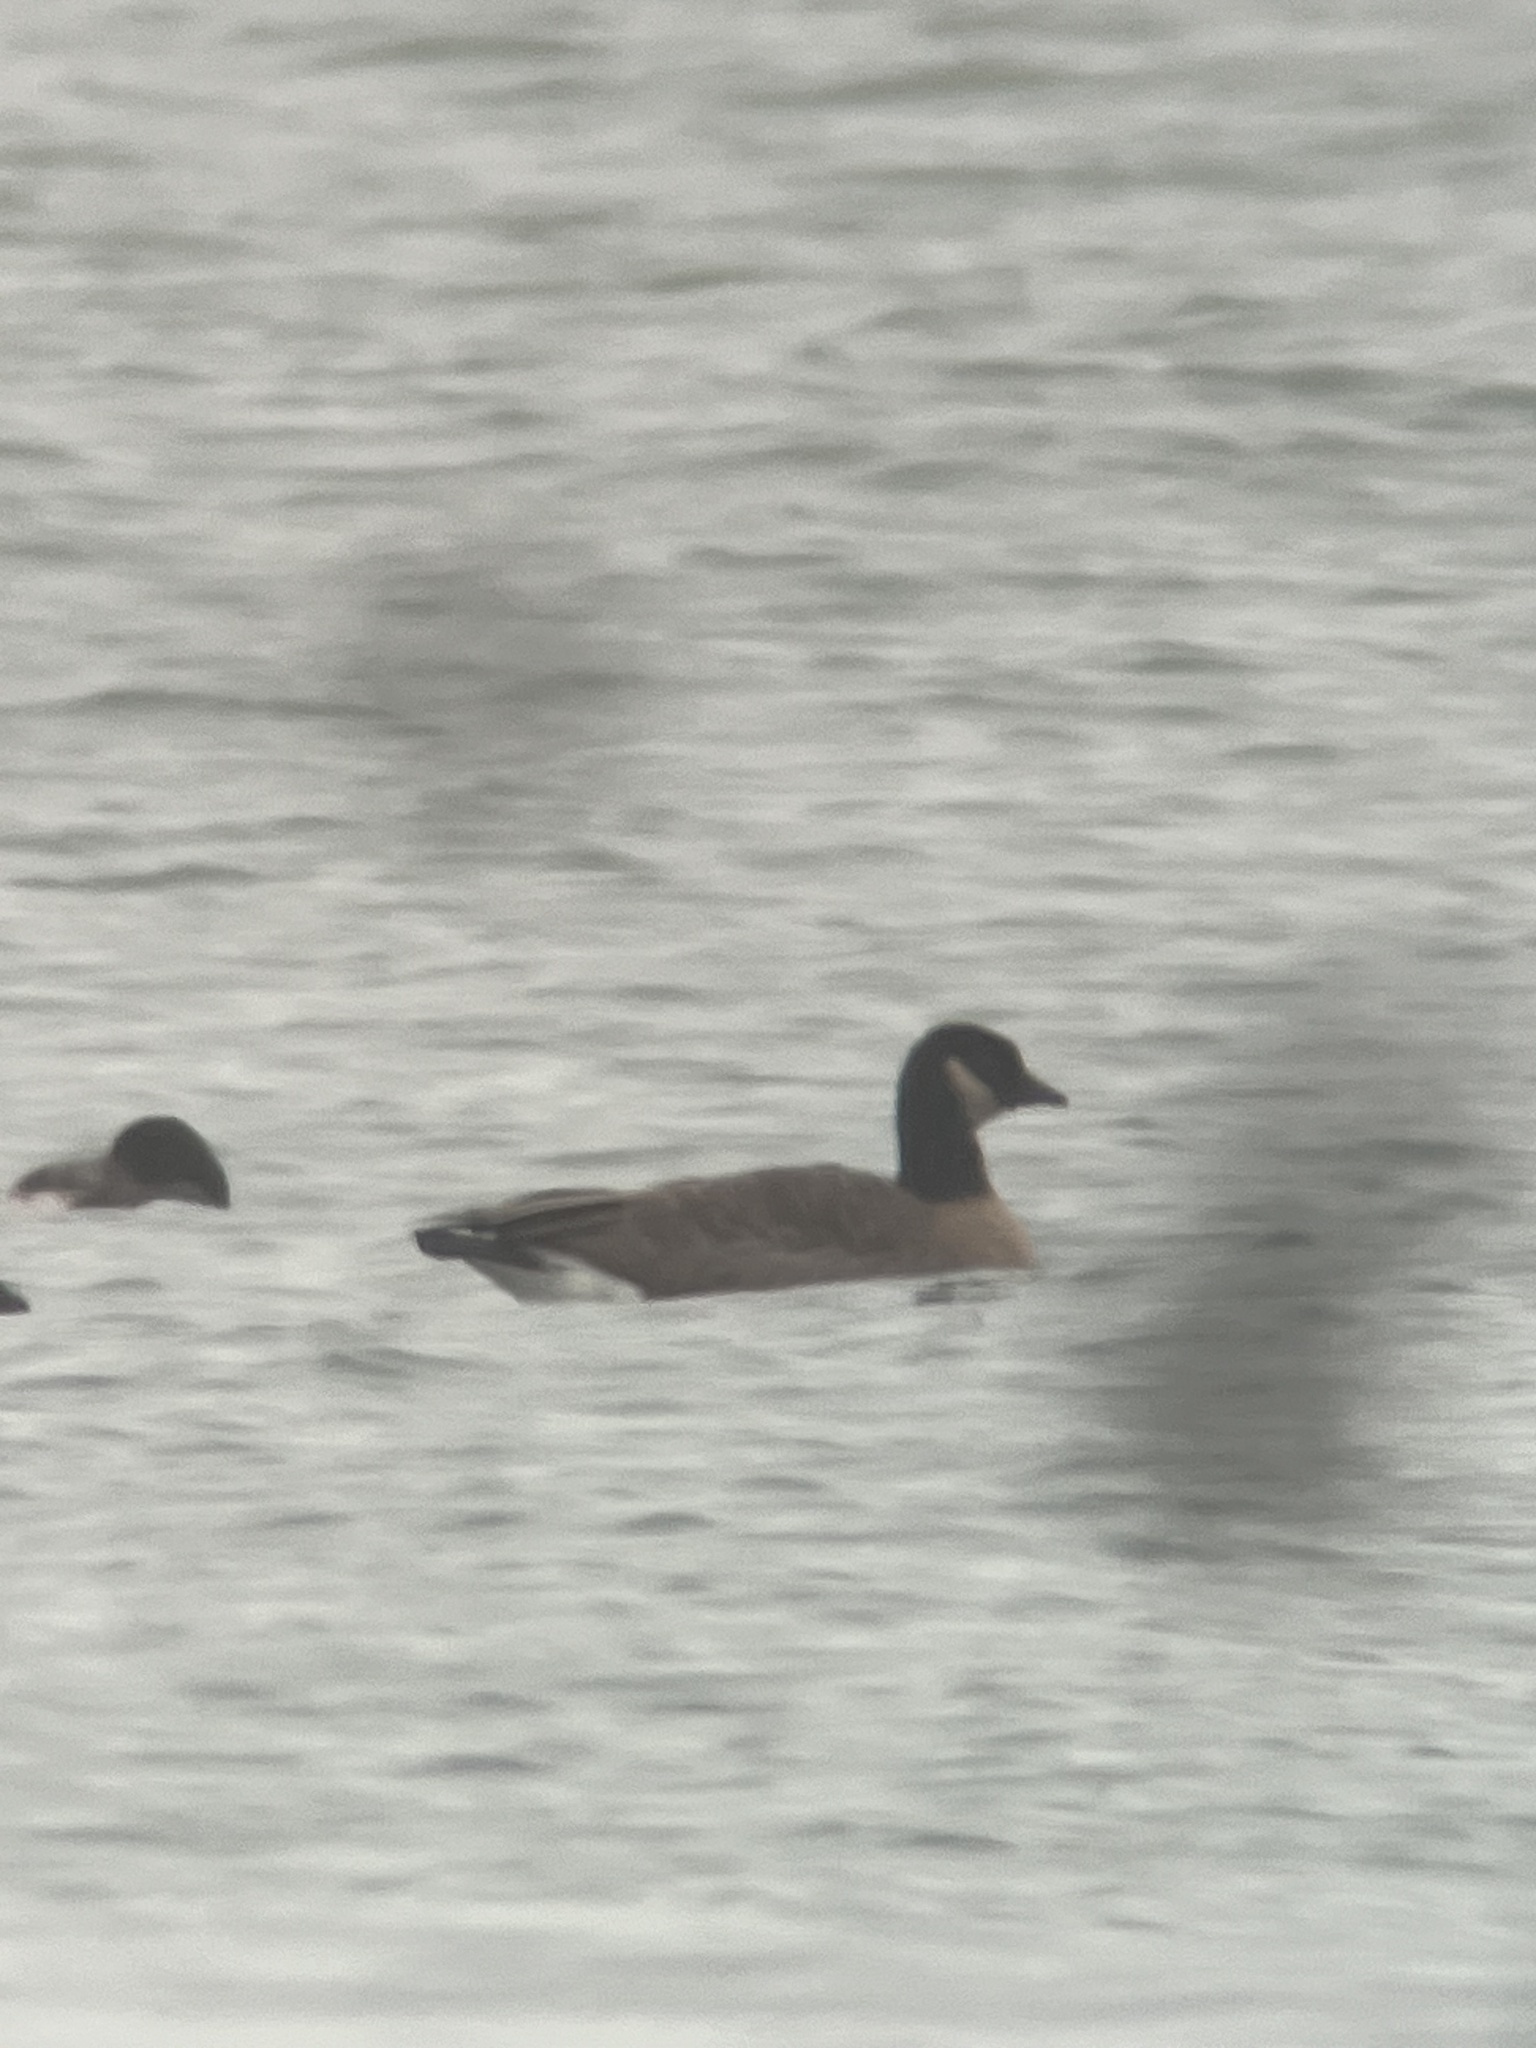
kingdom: Animalia
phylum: Chordata
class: Aves
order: Anseriformes
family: Anatidae
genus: Branta
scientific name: Branta hutchinsii
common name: Cackling goose
